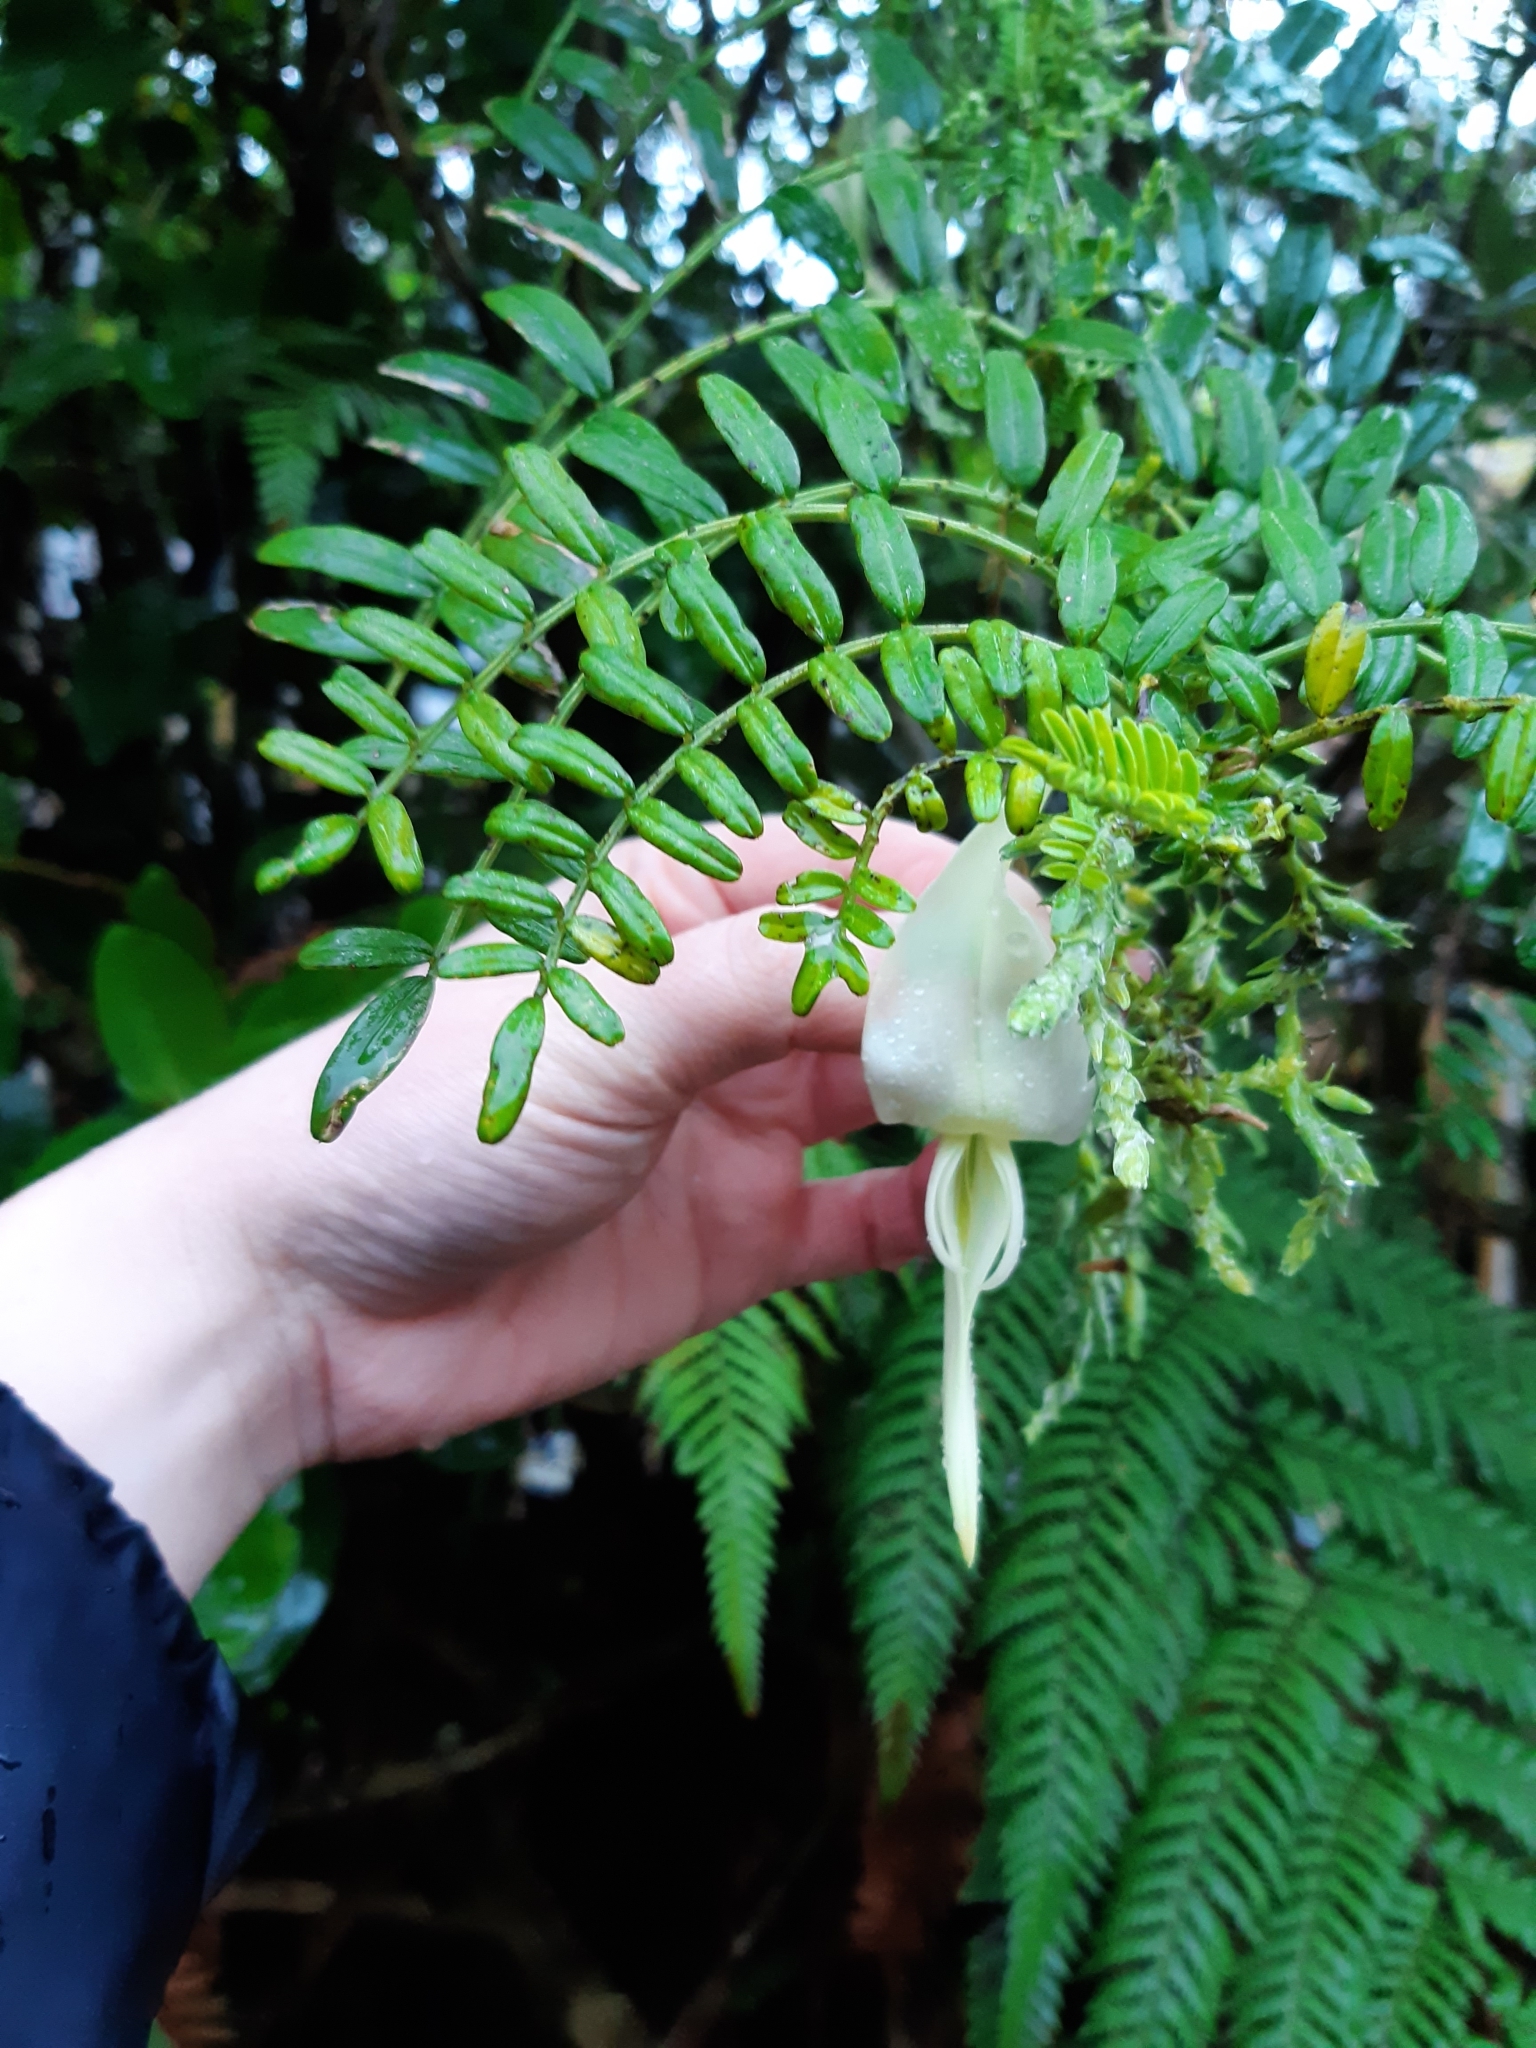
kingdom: Plantae
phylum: Tracheophyta
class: Magnoliopsida
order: Fabales
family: Fabaceae
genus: Clianthus
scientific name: Clianthus puniceus
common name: Kaka-beak
